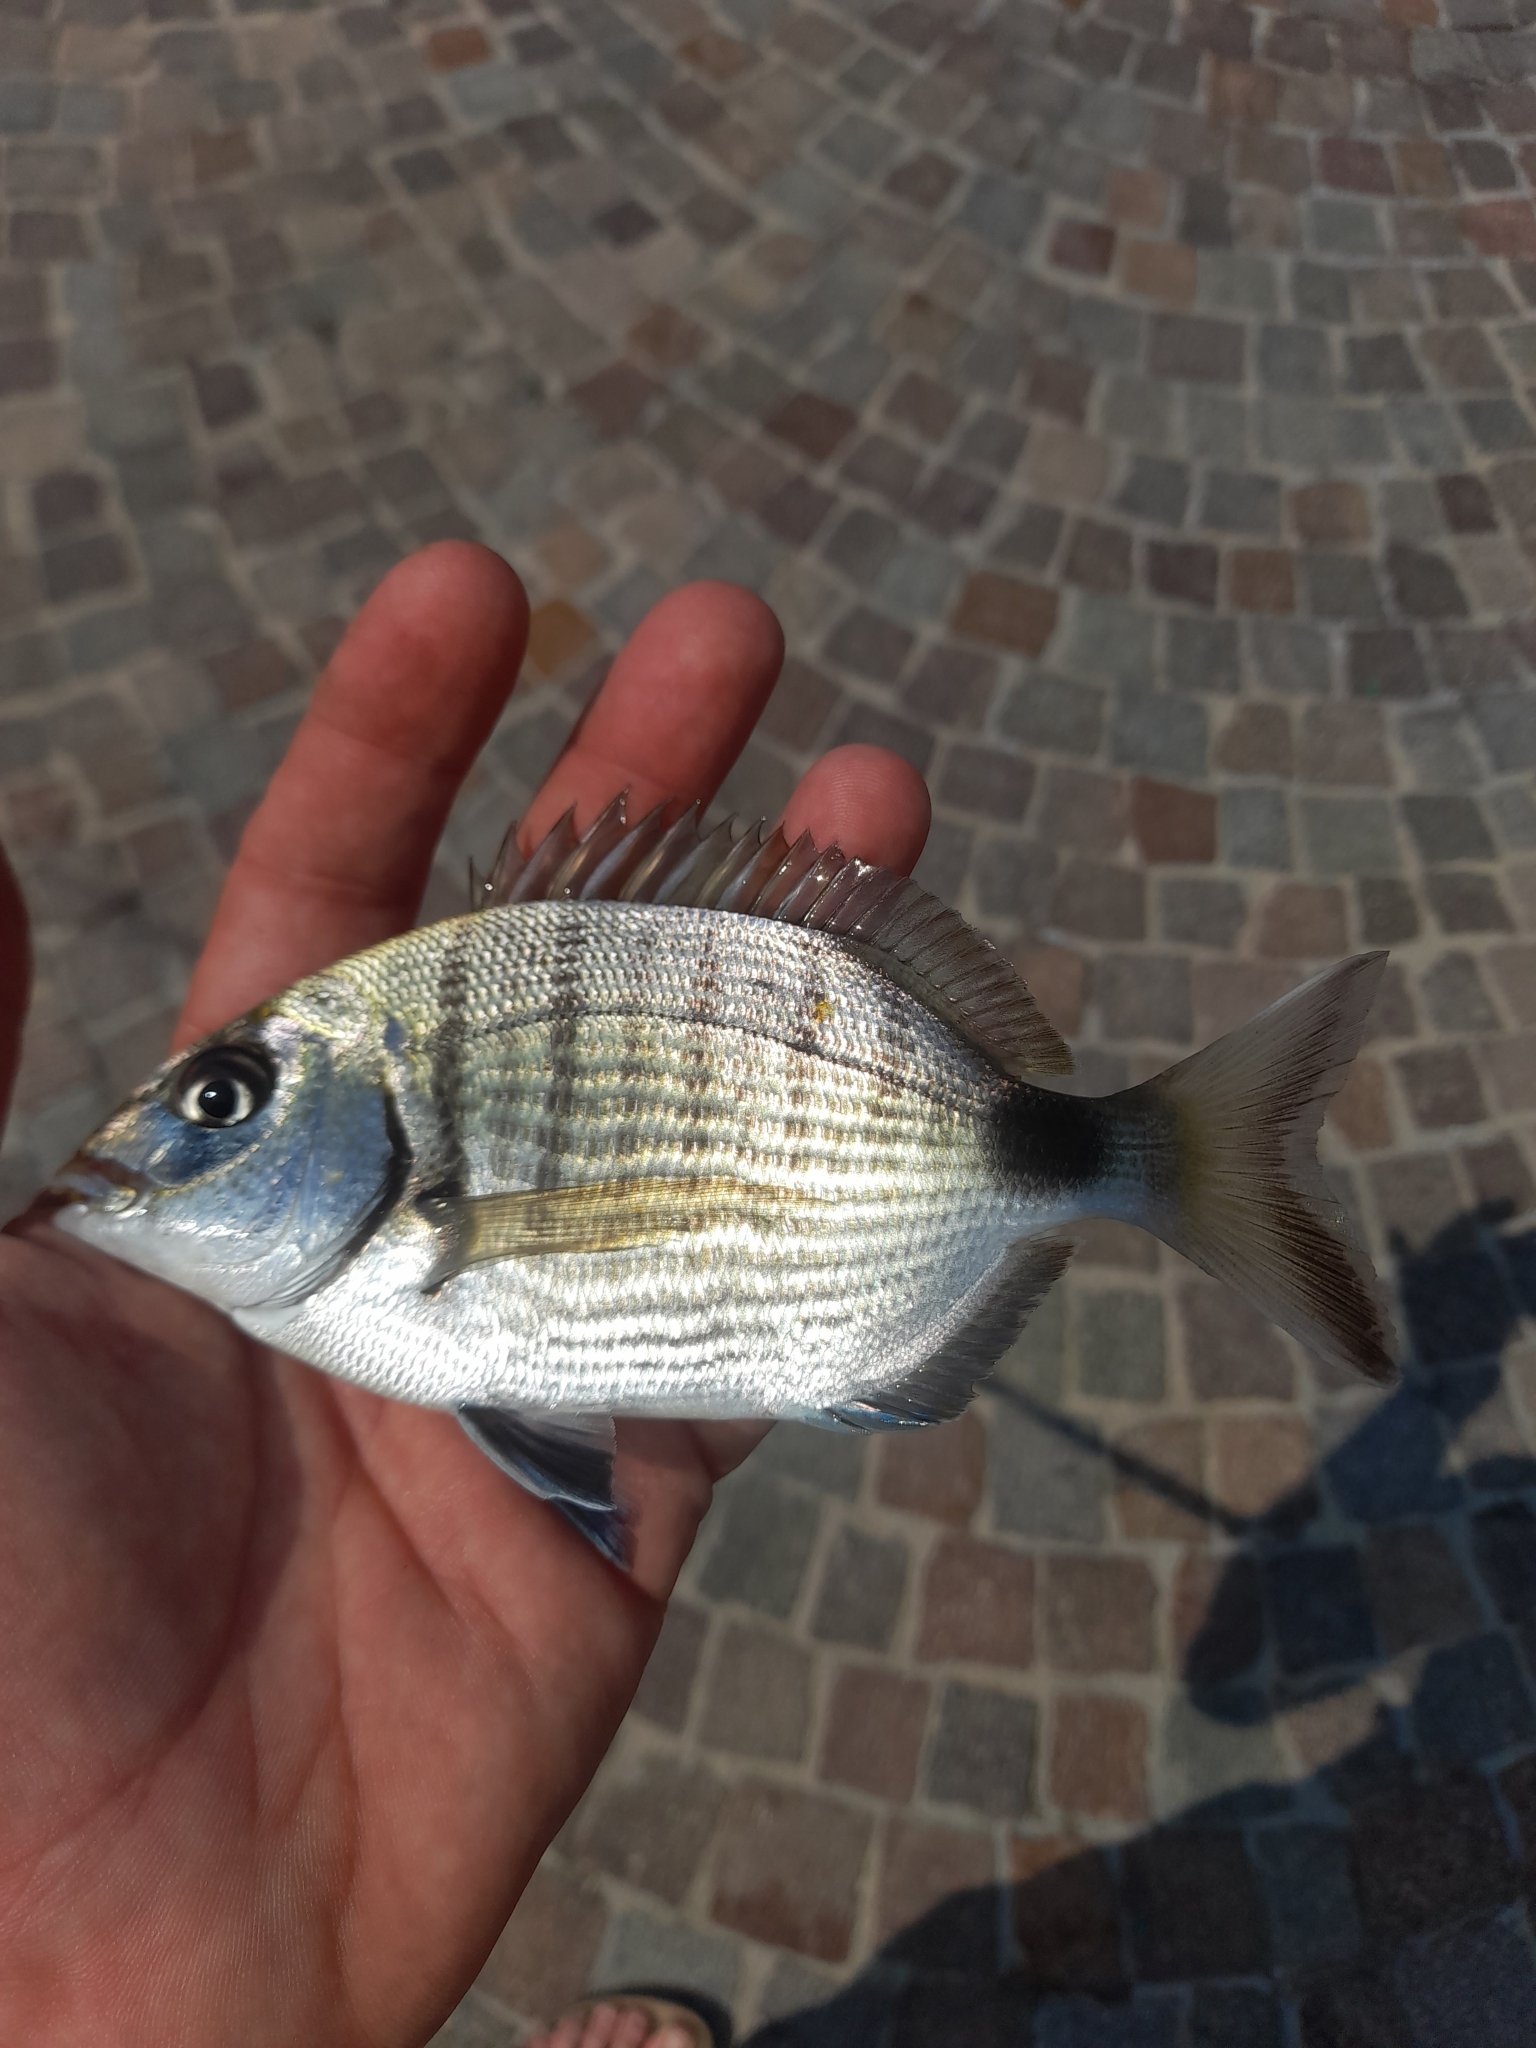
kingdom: Animalia
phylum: Chordata
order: Perciformes
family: Sparidae
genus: Diplodus
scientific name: Diplodus sargus
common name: White seabream
